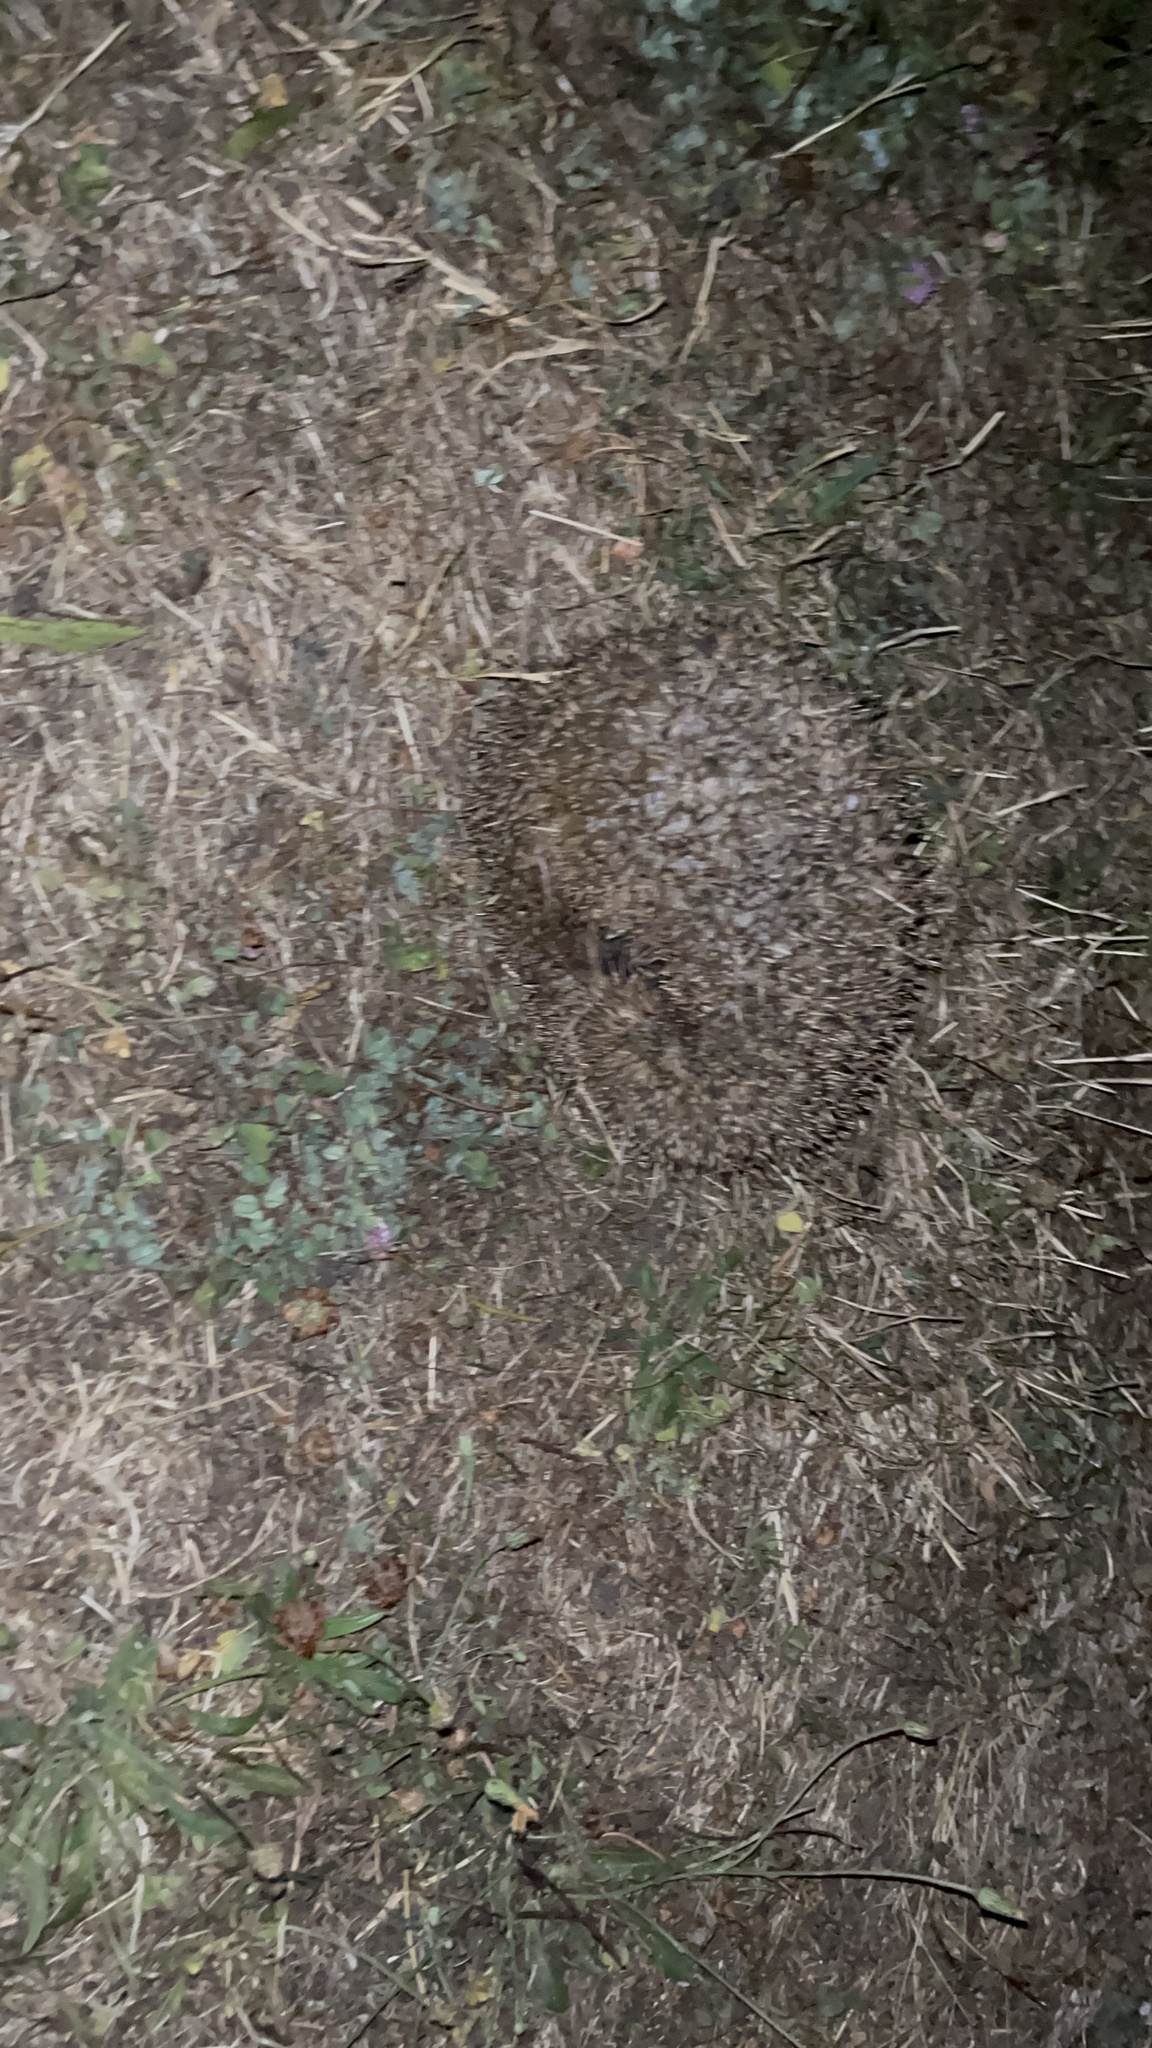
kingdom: Animalia
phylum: Chordata
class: Mammalia
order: Erinaceomorpha
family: Erinaceidae
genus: Erinaceus
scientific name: Erinaceus europaeus
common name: West european hedgehog
